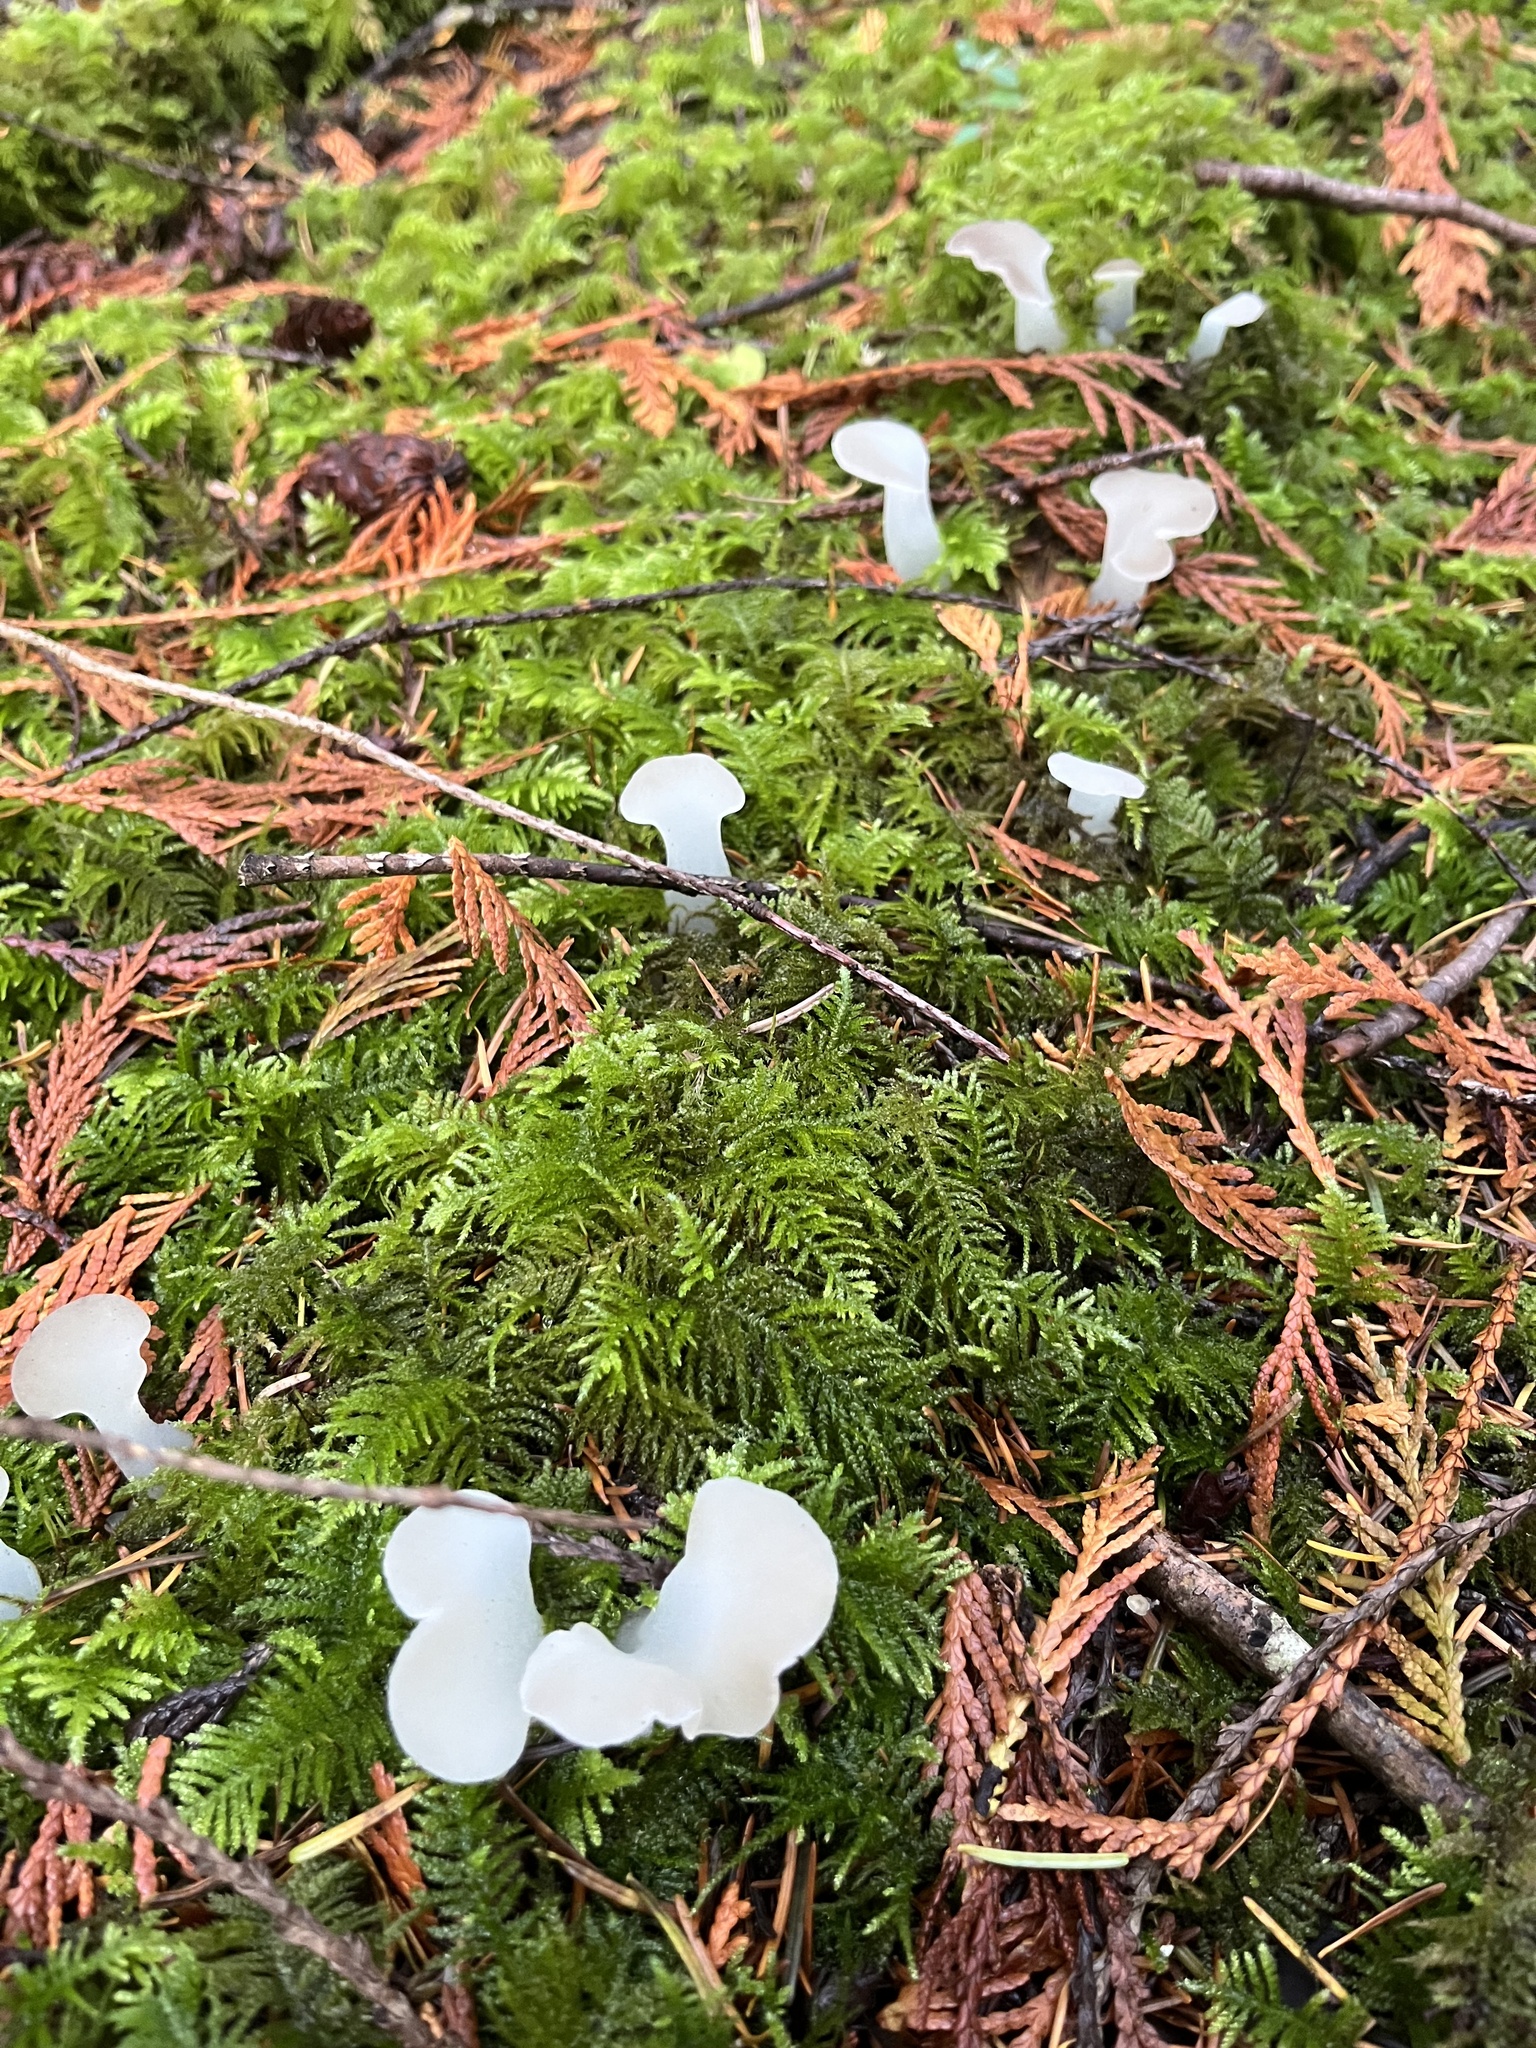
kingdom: Fungi
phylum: Basidiomycota
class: Agaricomycetes
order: Auriculariales
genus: Pseudohydnum
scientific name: Pseudohydnum gelatinosum
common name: Jelly tongue
